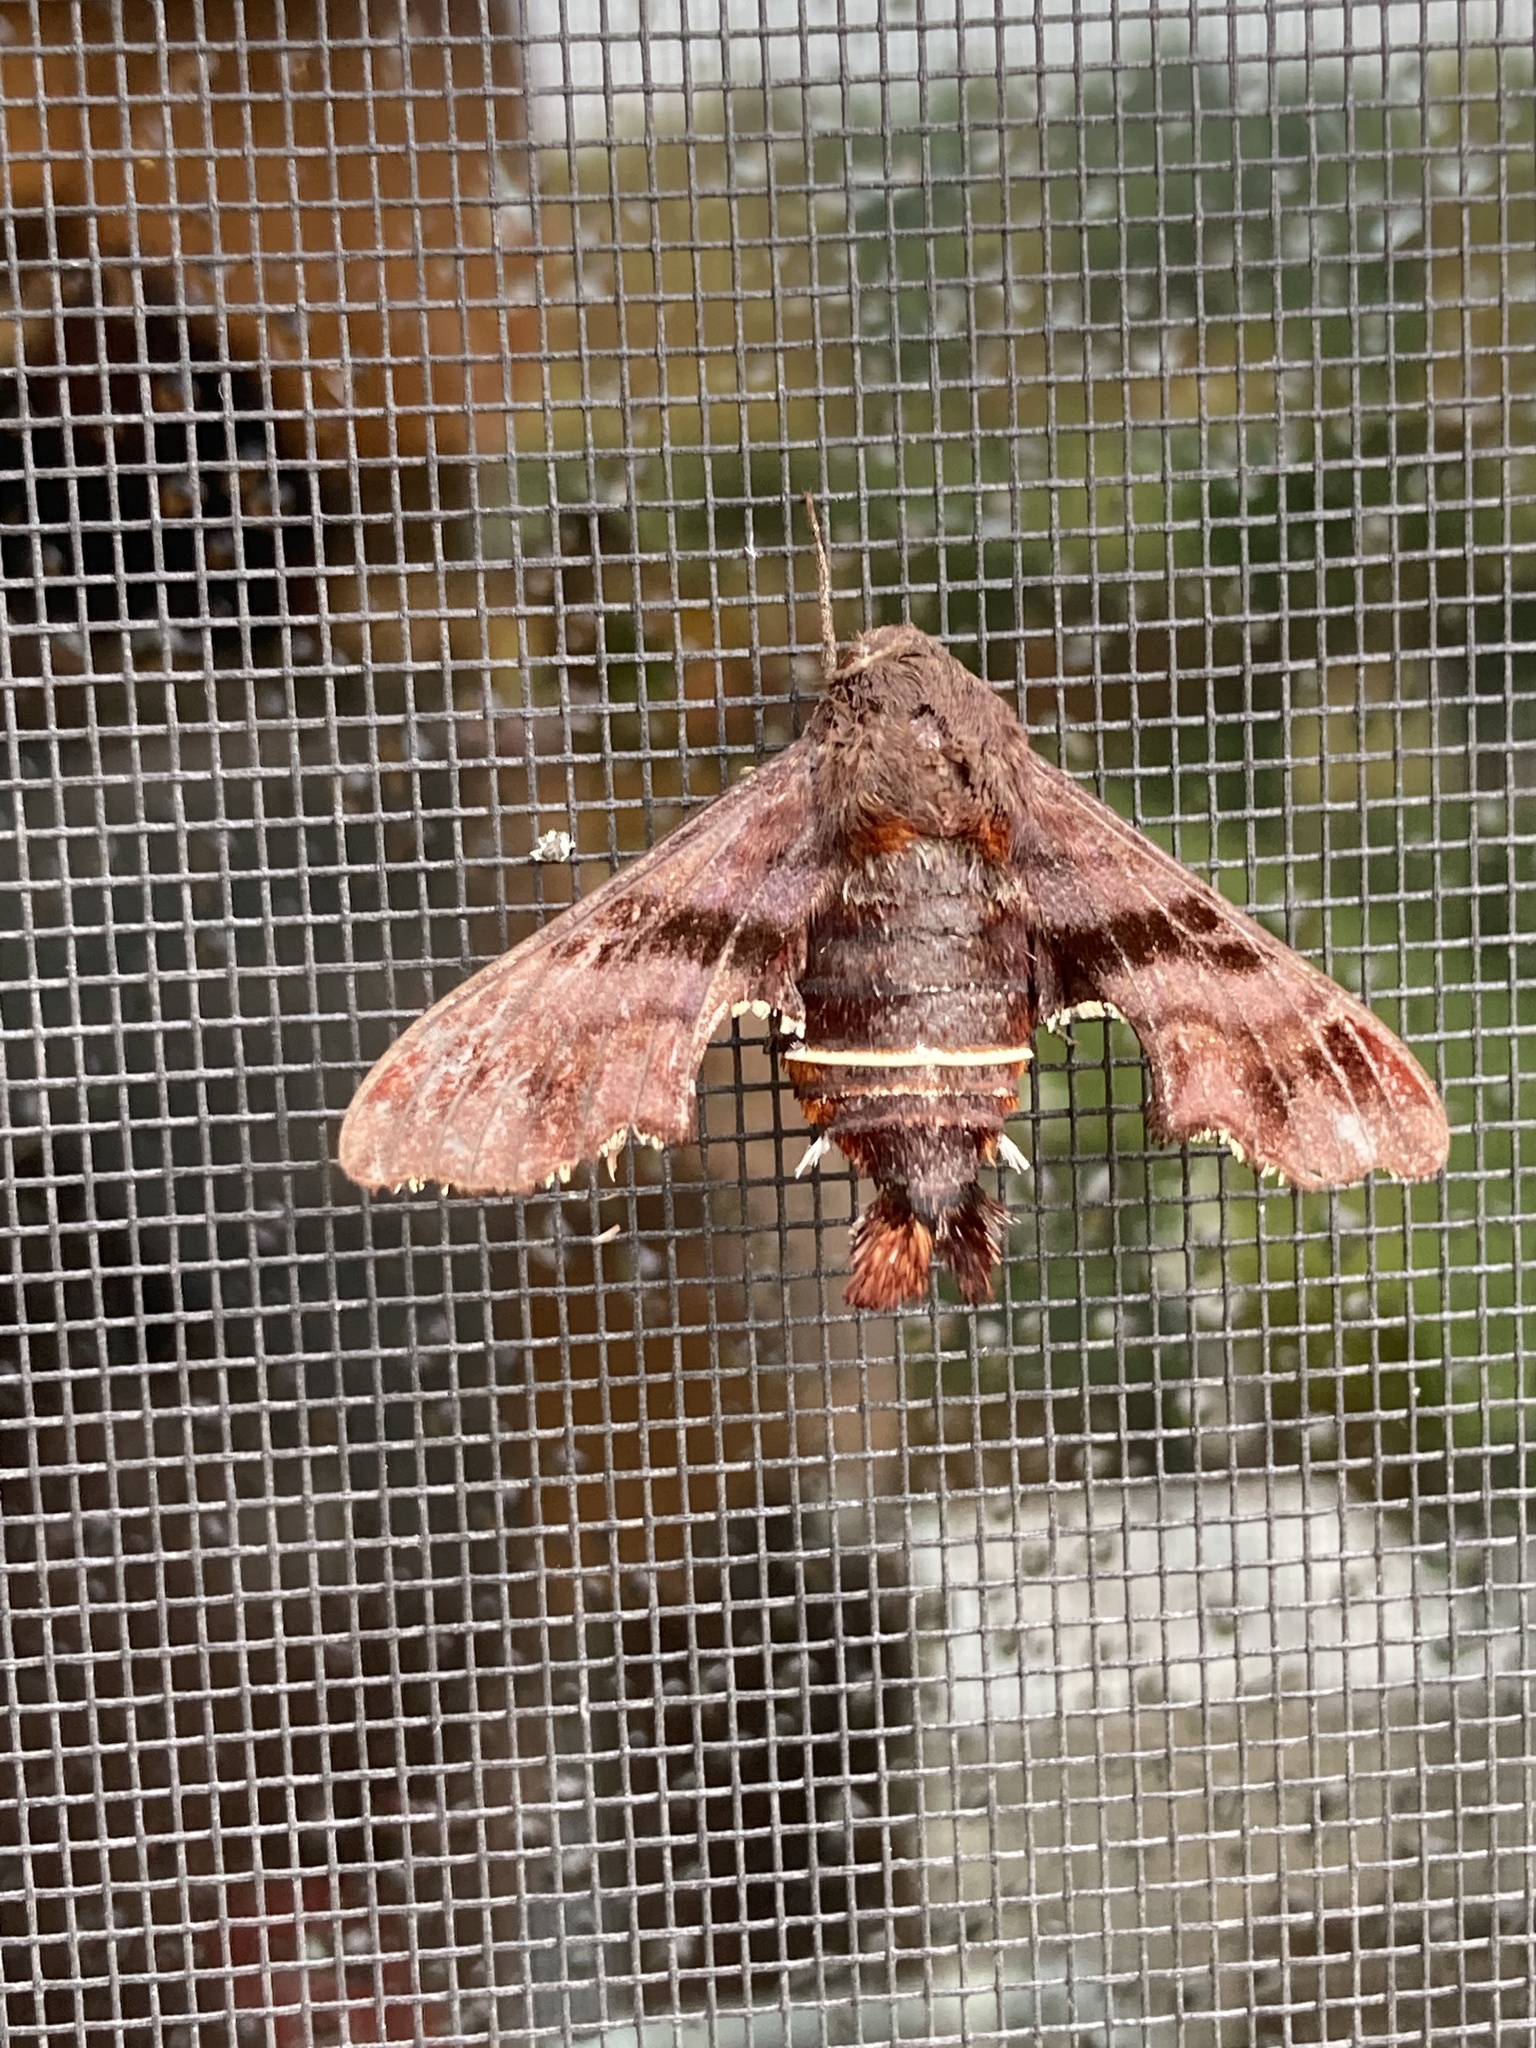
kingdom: Animalia
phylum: Arthropoda
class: Insecta
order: Lepidoptera
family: Sphingidae
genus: Amphion
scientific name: Amphion floridensis
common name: Nessus sphinx
